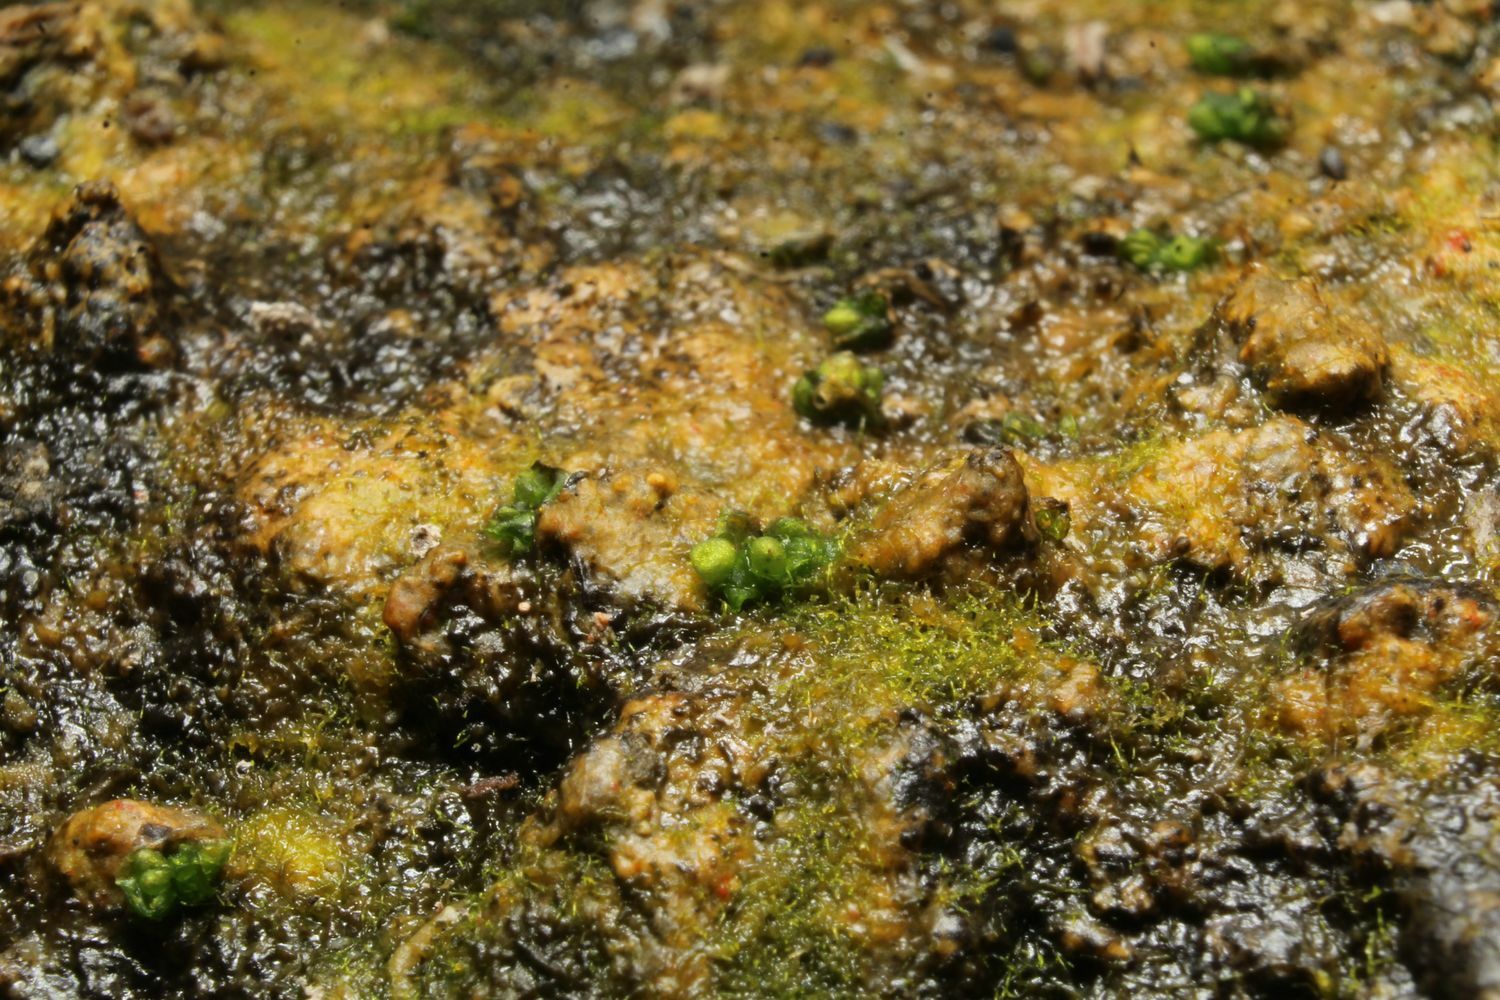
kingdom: Plantae
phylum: Marchantiophyta
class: Marchantiopsida
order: Sphaerocarpales
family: Riellaceae
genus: Austroriella
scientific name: Austroriella salta
